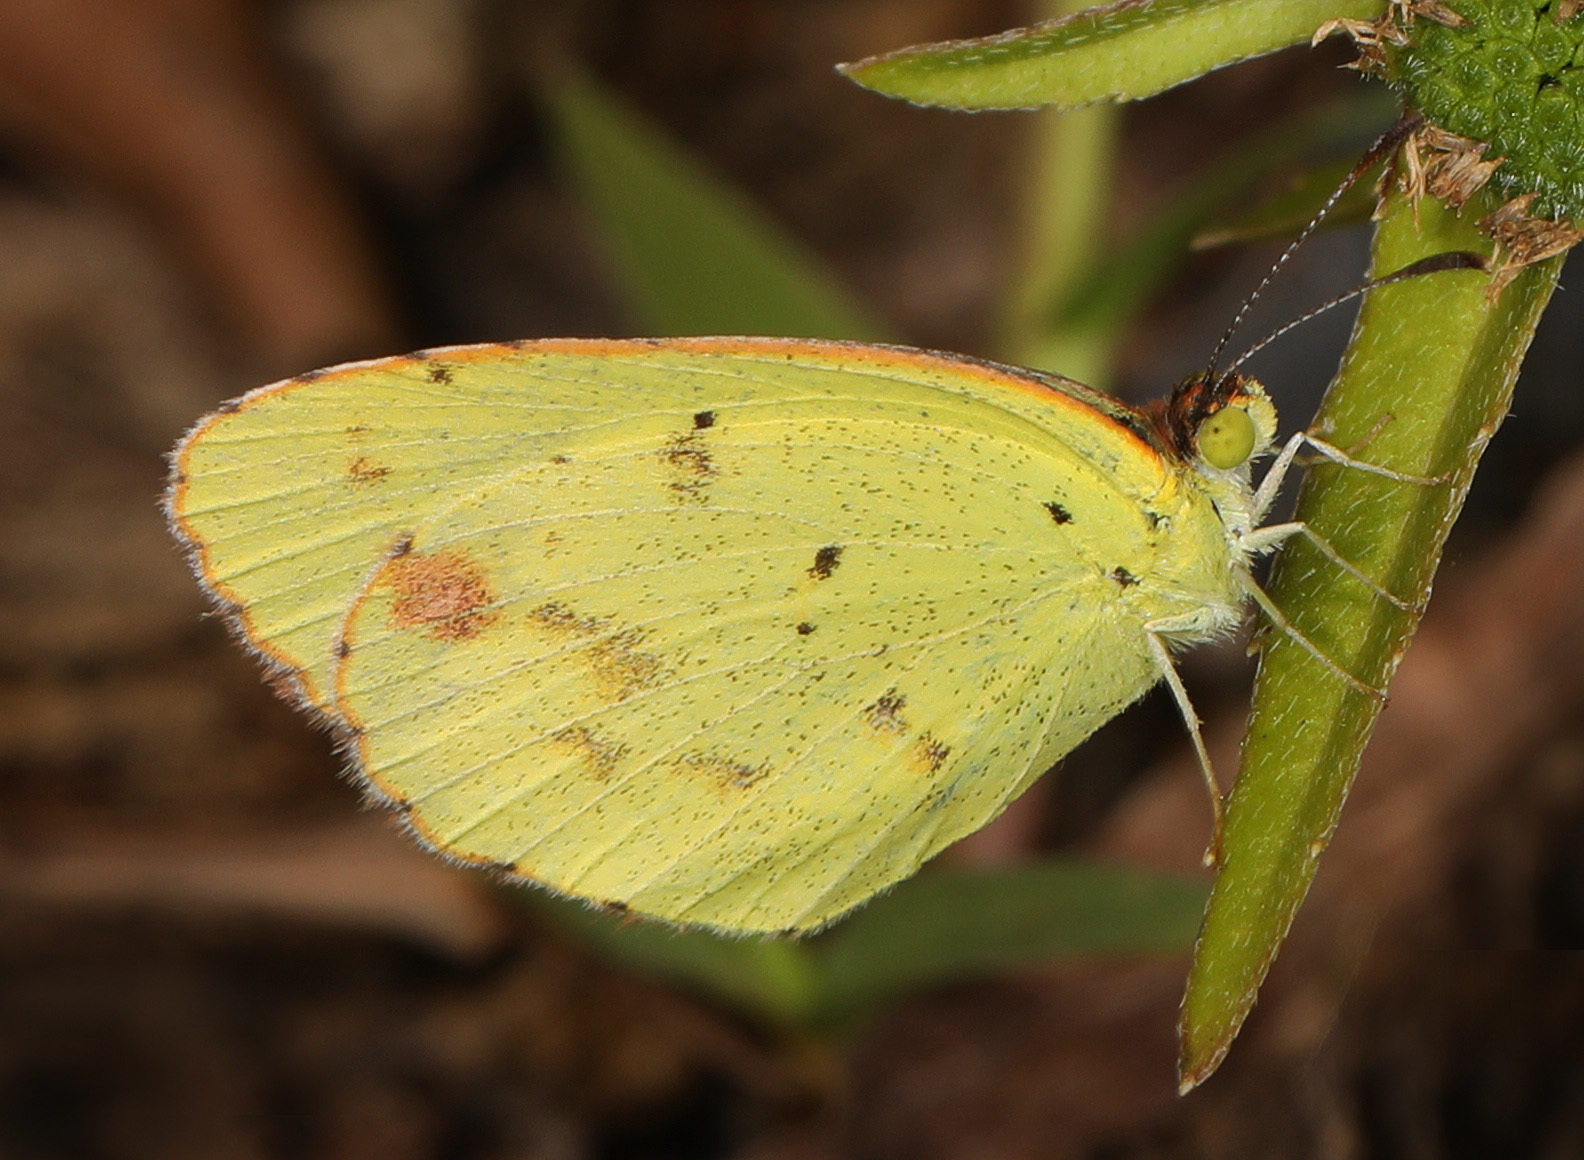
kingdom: Animalia
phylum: Arthropoda
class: Insecta
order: Lepidoptera
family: Pieridae
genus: Pyrisitia
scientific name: Pyrisitia lisa
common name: Little yellow
